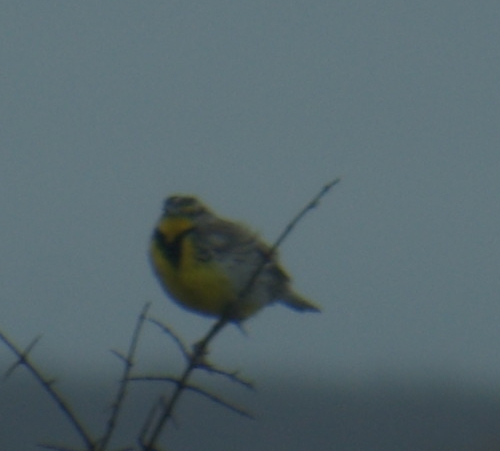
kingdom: Animalia
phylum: Chordata
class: Aves
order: Passeriformes
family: Icteridae
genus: Sturnella
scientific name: Sturnella neglecta
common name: Western meadowlark
